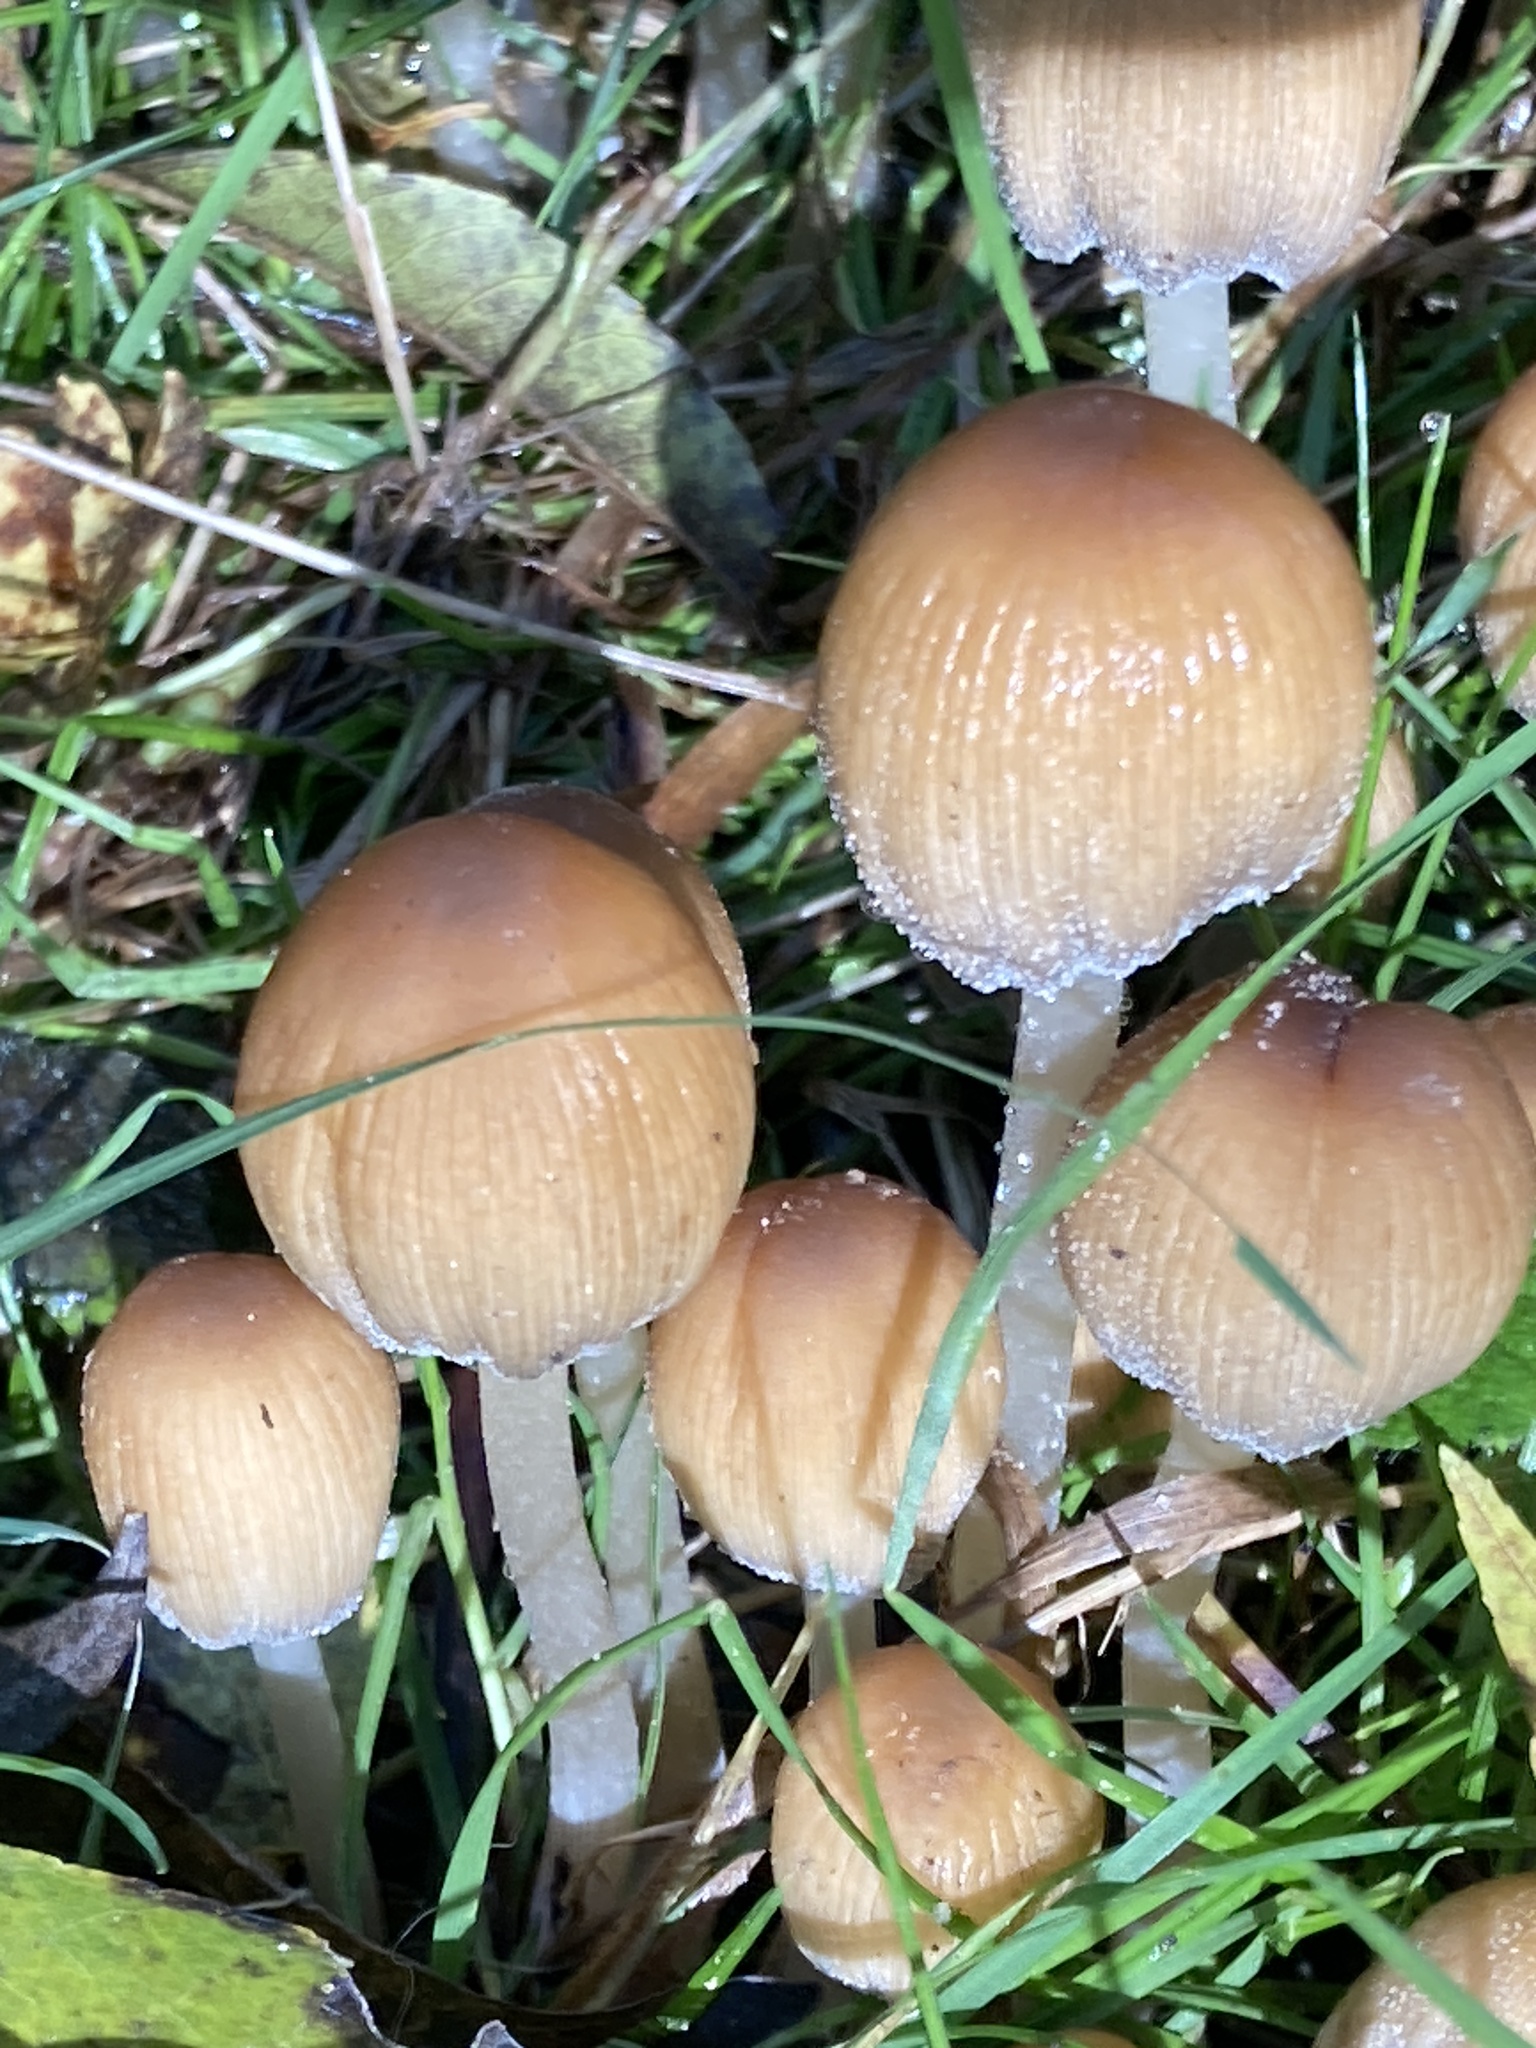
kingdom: Fungi
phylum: Basidiomycota
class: Agaricomycetes
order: Agaricales
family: Psathyrellaceae
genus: Coprinellus
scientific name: Coprinellus micaceus
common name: Glistening ink-cap
